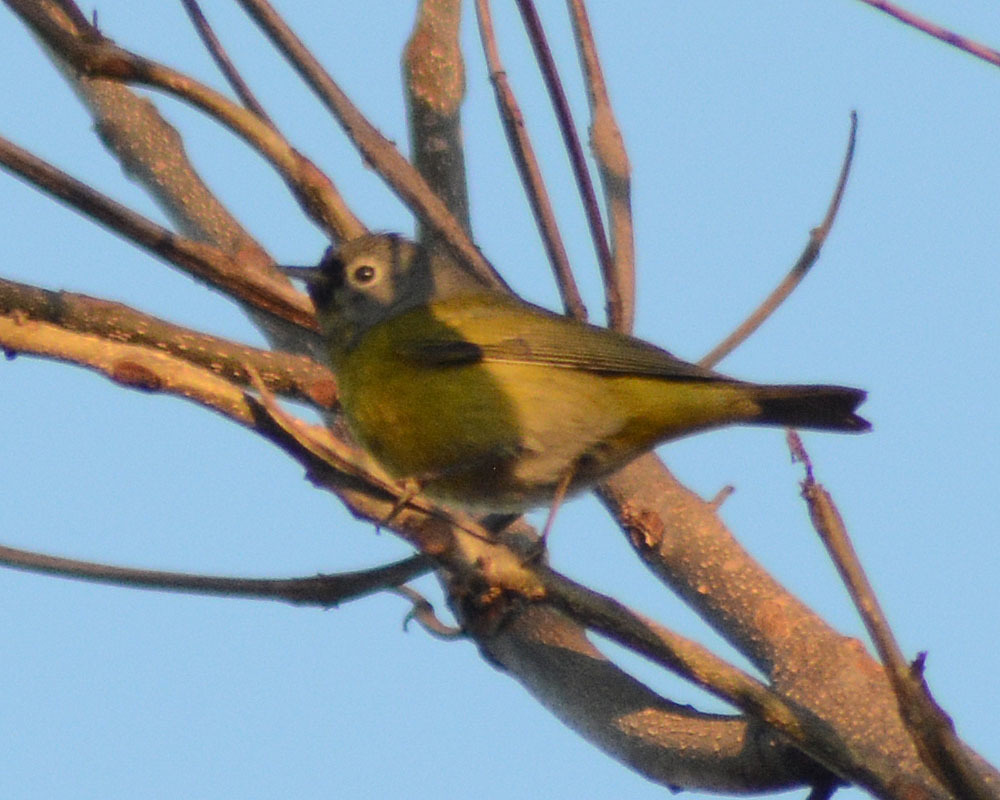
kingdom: Animalia
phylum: Chordata
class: Aves
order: Passeriformes
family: Parulidae
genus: Leiothlypis
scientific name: Leiothlypis ruficapilla
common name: Nashville warbler
